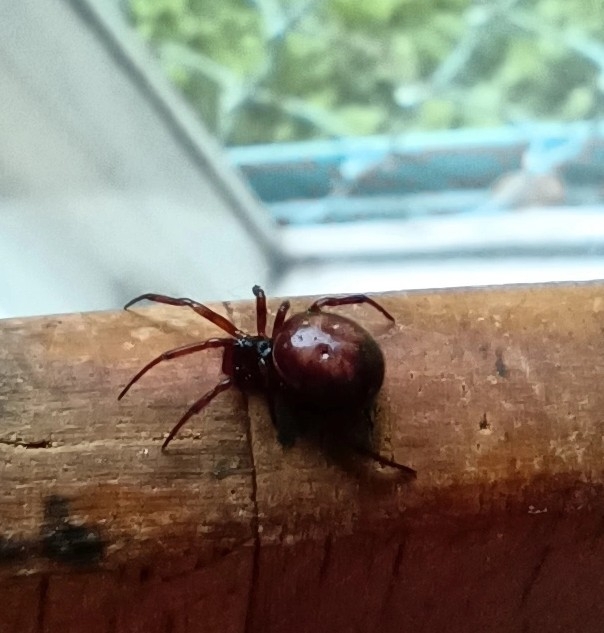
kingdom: Animalia
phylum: Arthropoda
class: Arachnida
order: Araneae
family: Theridiidae
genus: Steatoda
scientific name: Steatoda bipunctata
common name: False widow
